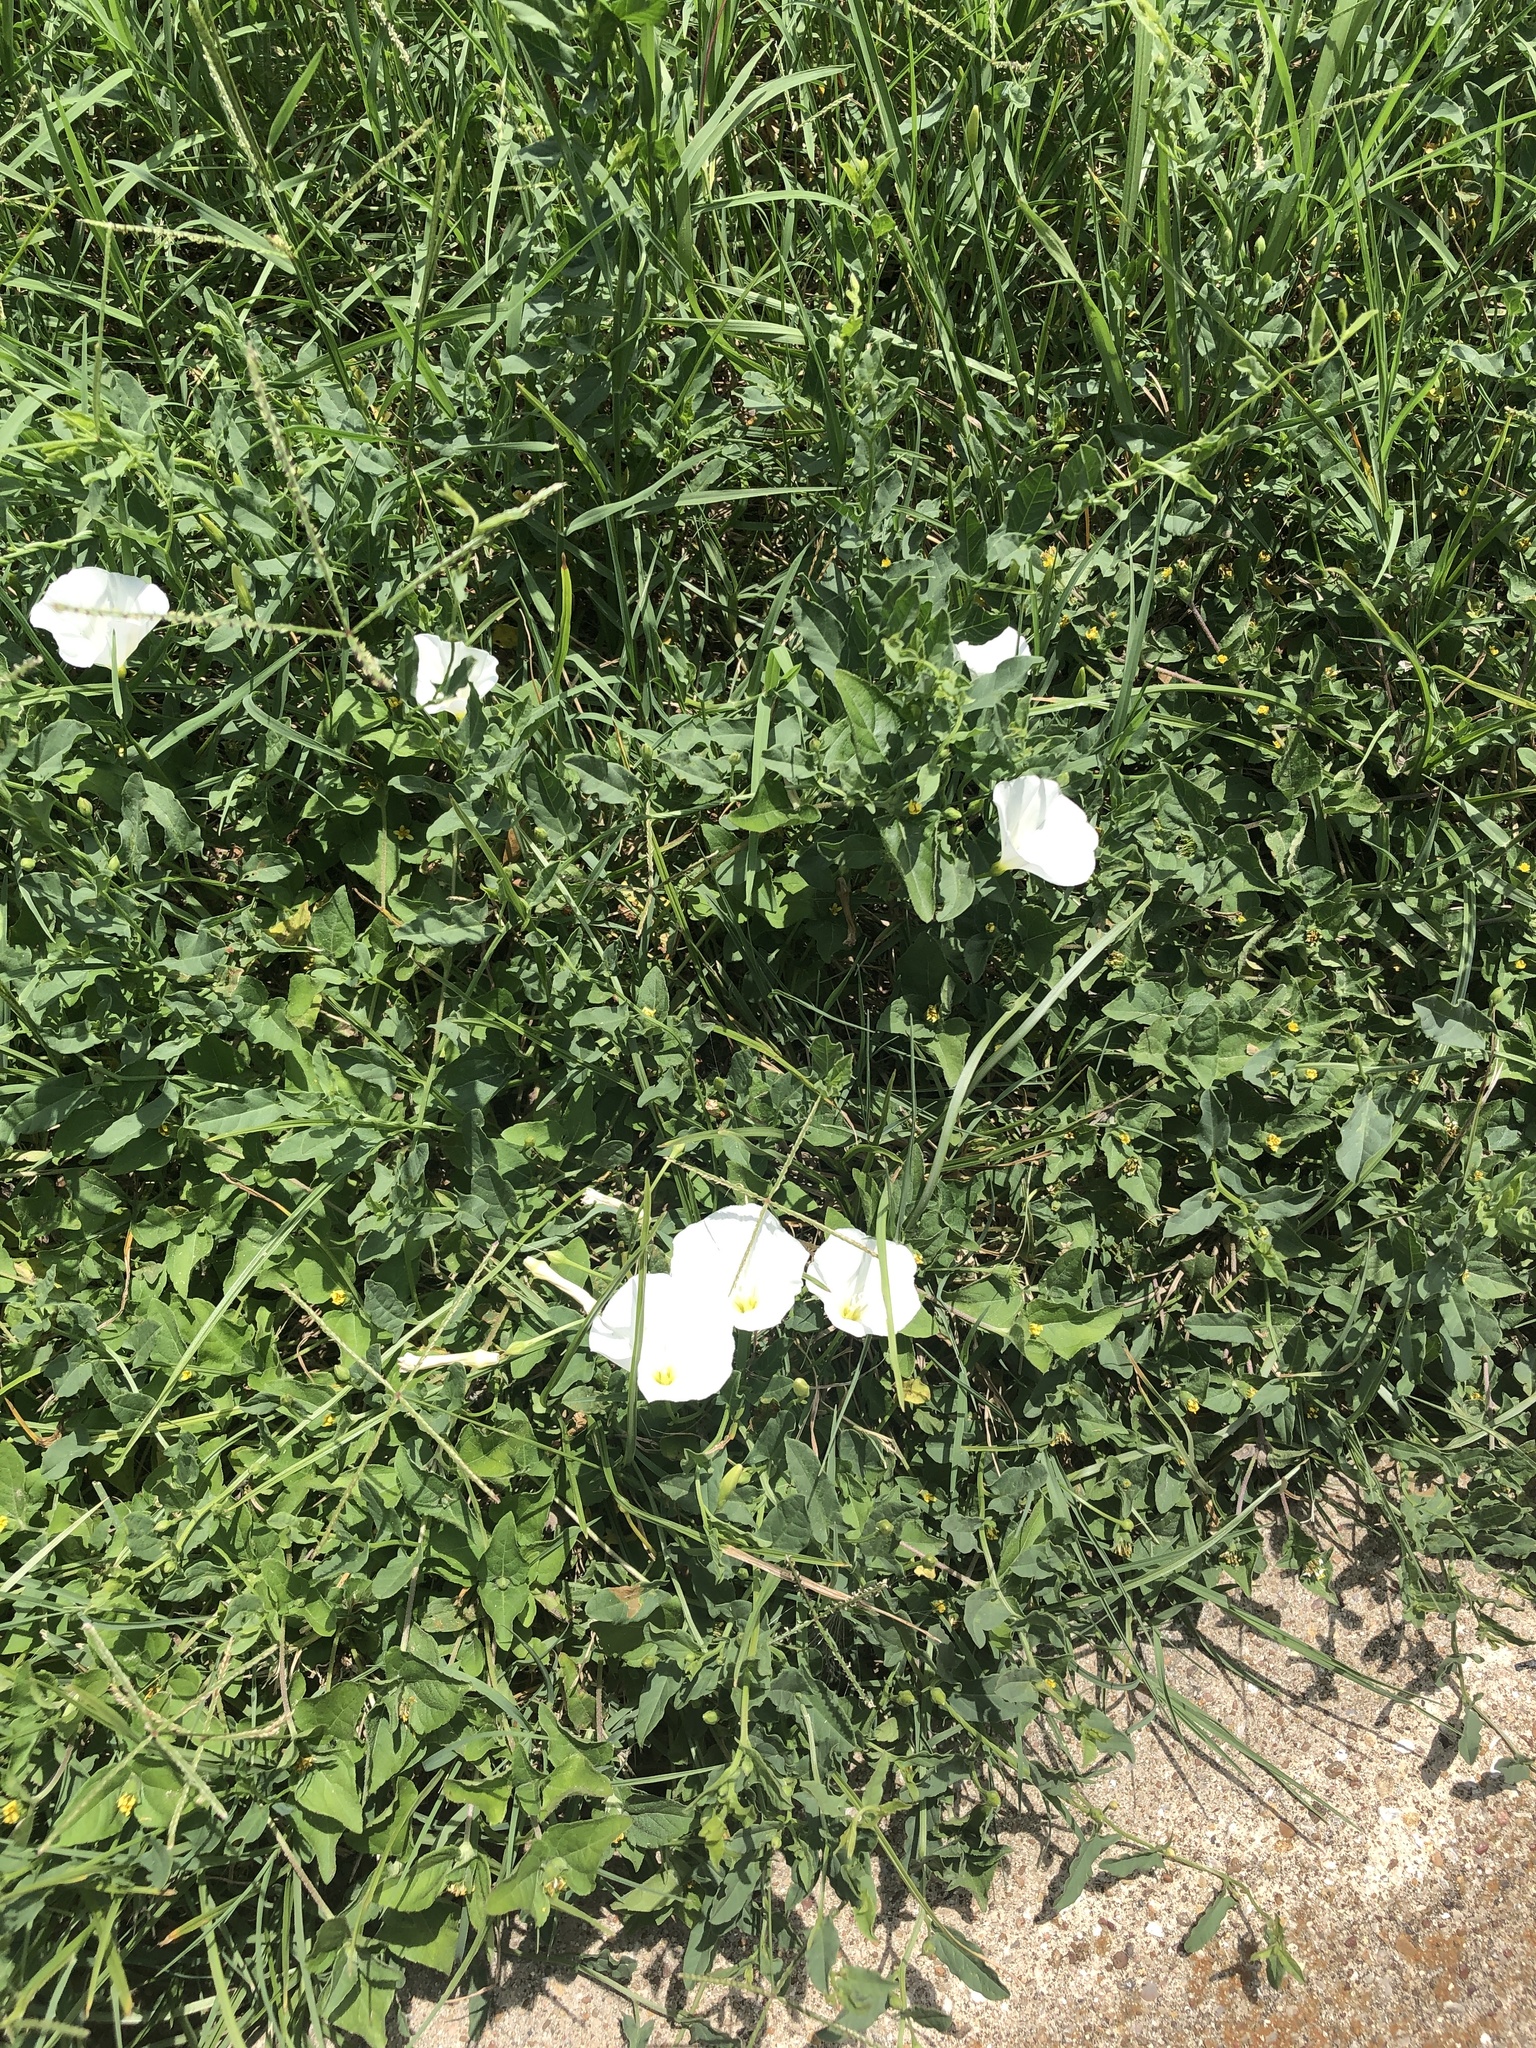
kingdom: Plantae
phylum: Tracheophyta
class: Magnoliopsida
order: Solanales
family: Convolvulaceae
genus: Convolvulus
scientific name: Convolvulus arvensis
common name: Field bindweed
